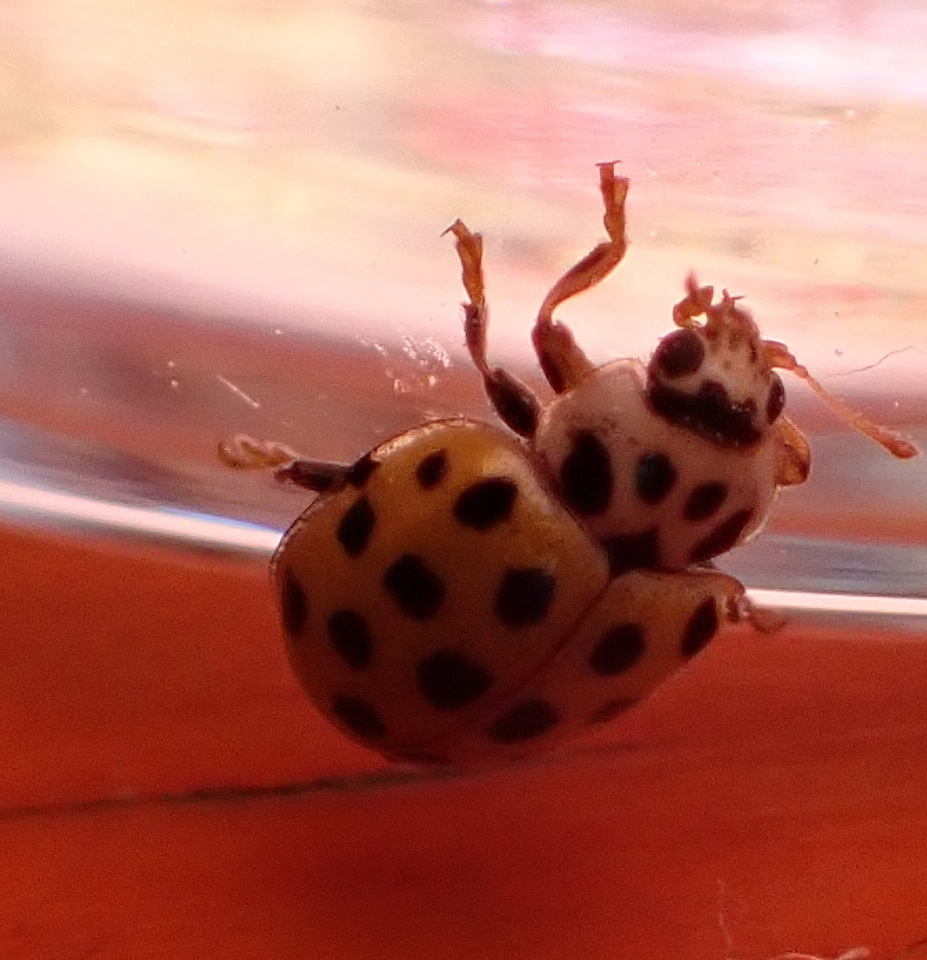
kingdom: Animalia
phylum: Arthropoda
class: Insecta
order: Coleoptera
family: Coccinellidae
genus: Psyllobora
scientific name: Psyllobora vigintiduopunctata
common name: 22-spot ladybird
